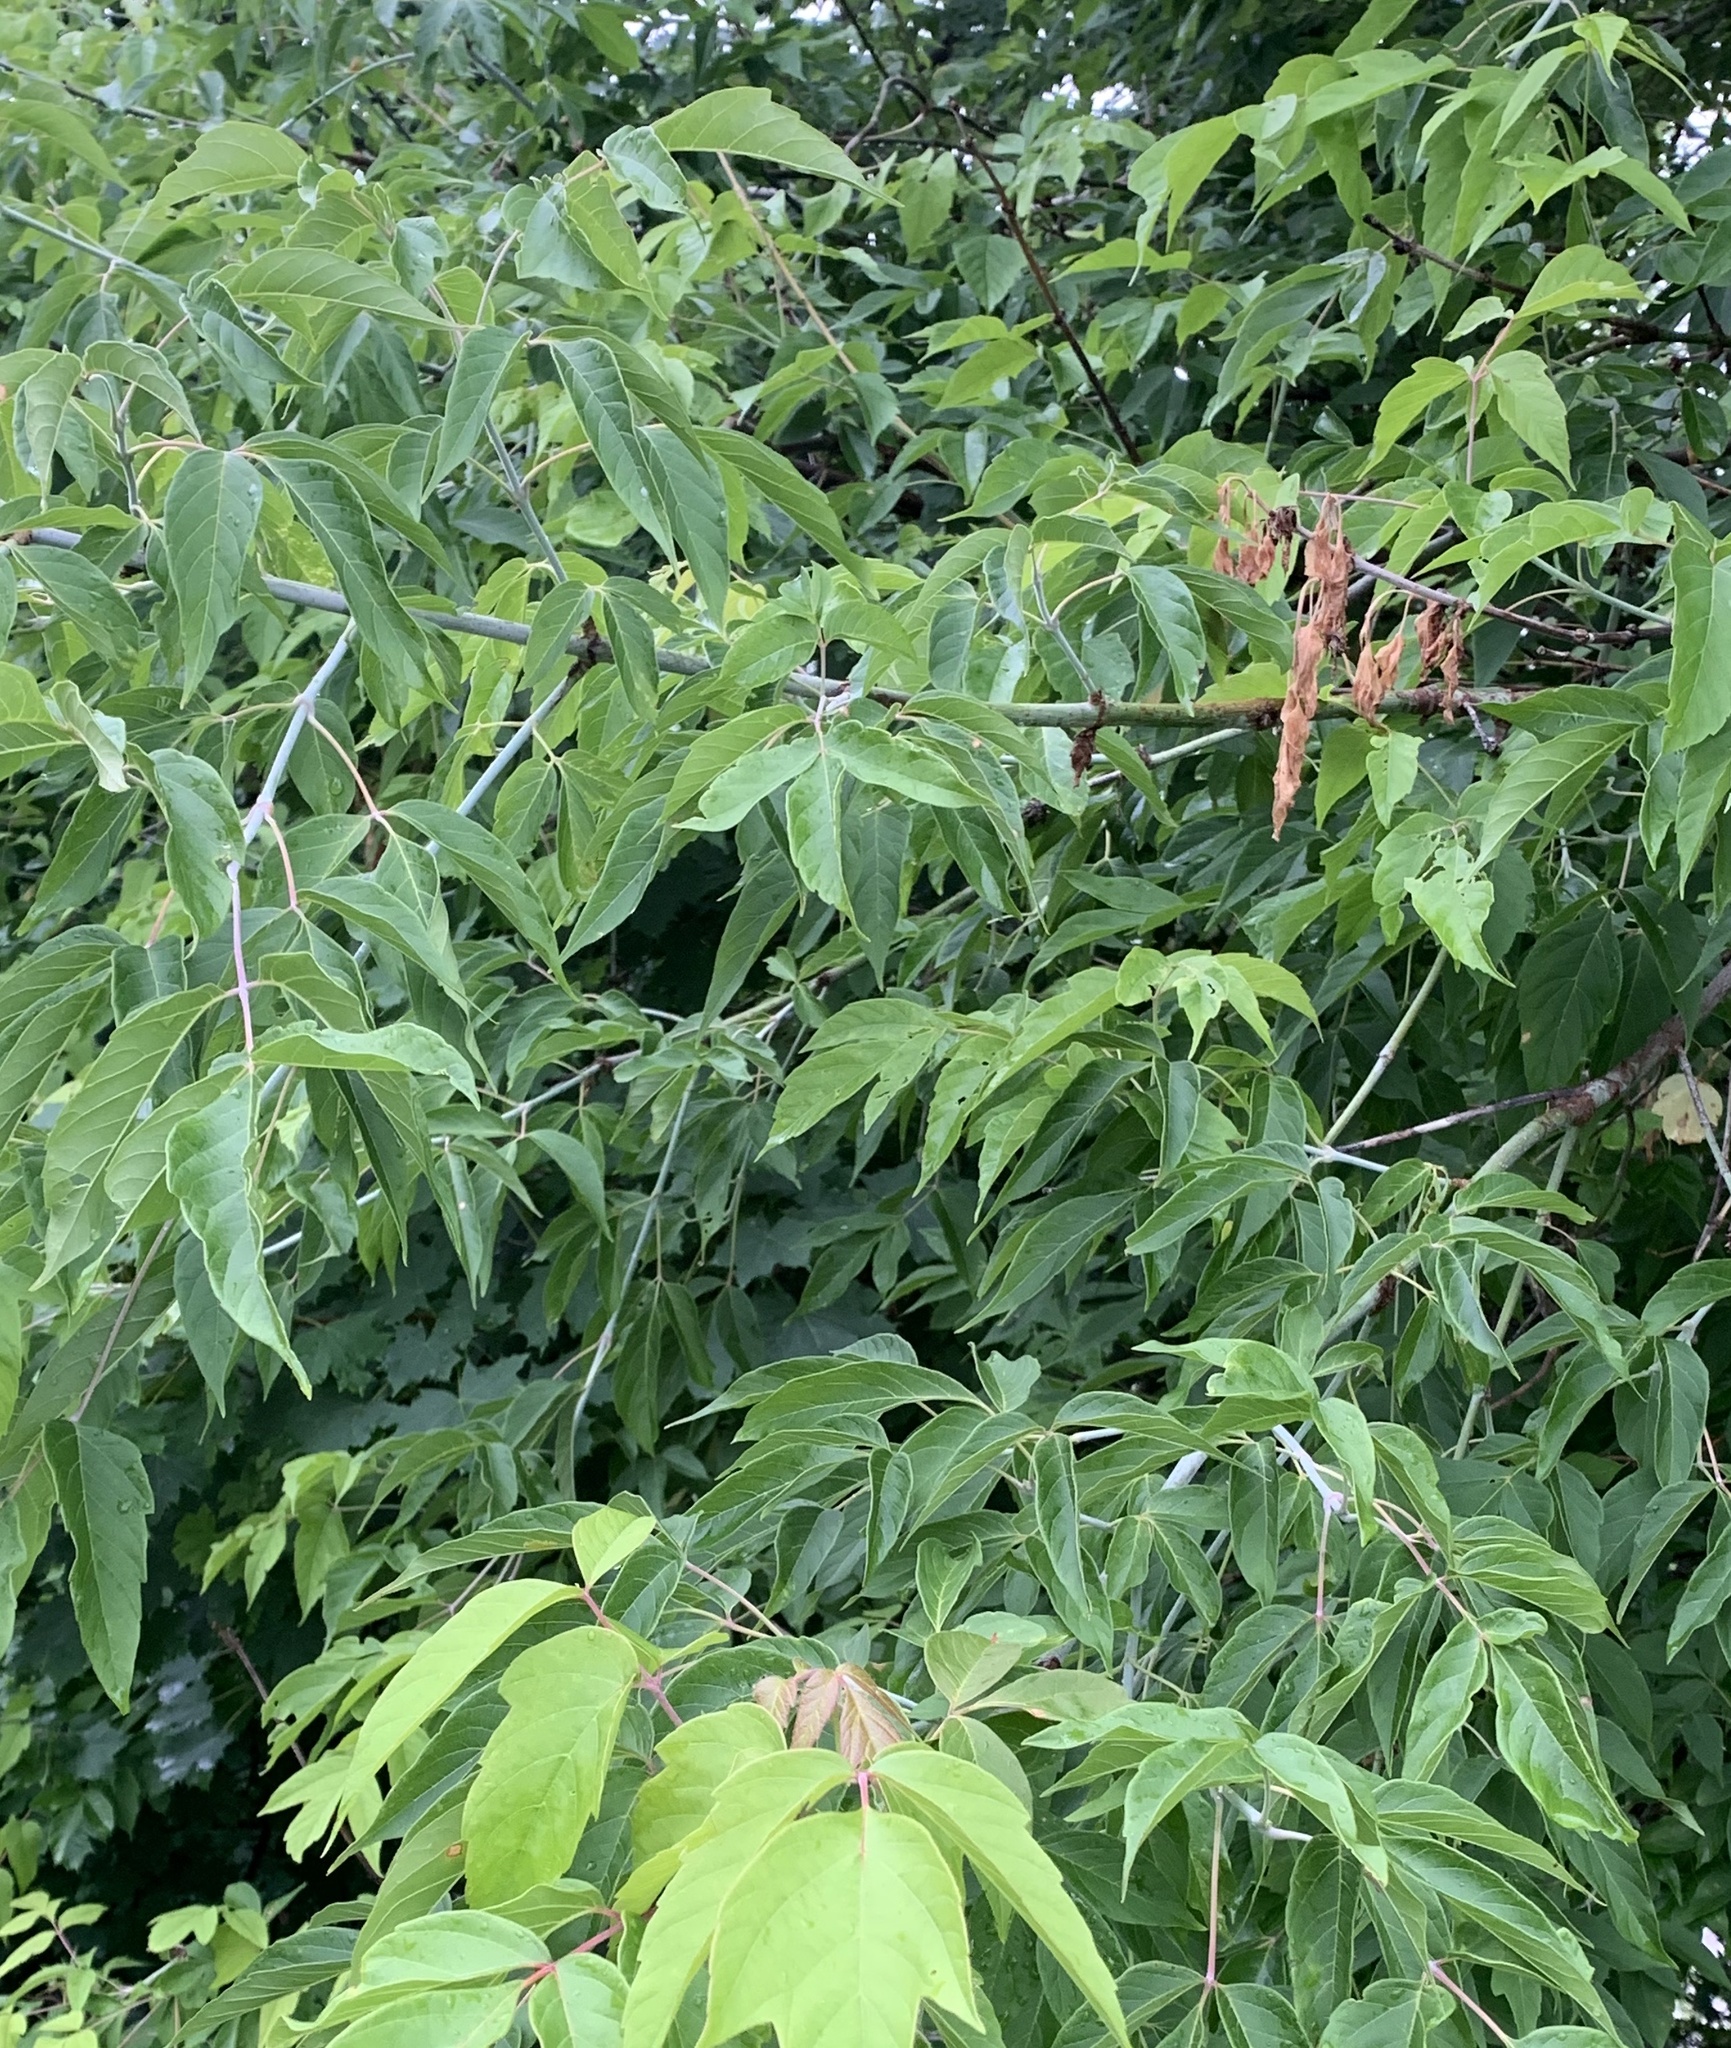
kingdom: Plantae
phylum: Tracheophyta
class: Magnoliopsida
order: Sapindales
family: Sapindaceae
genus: Acer
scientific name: Acer negundo
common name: Ashleaf maple
